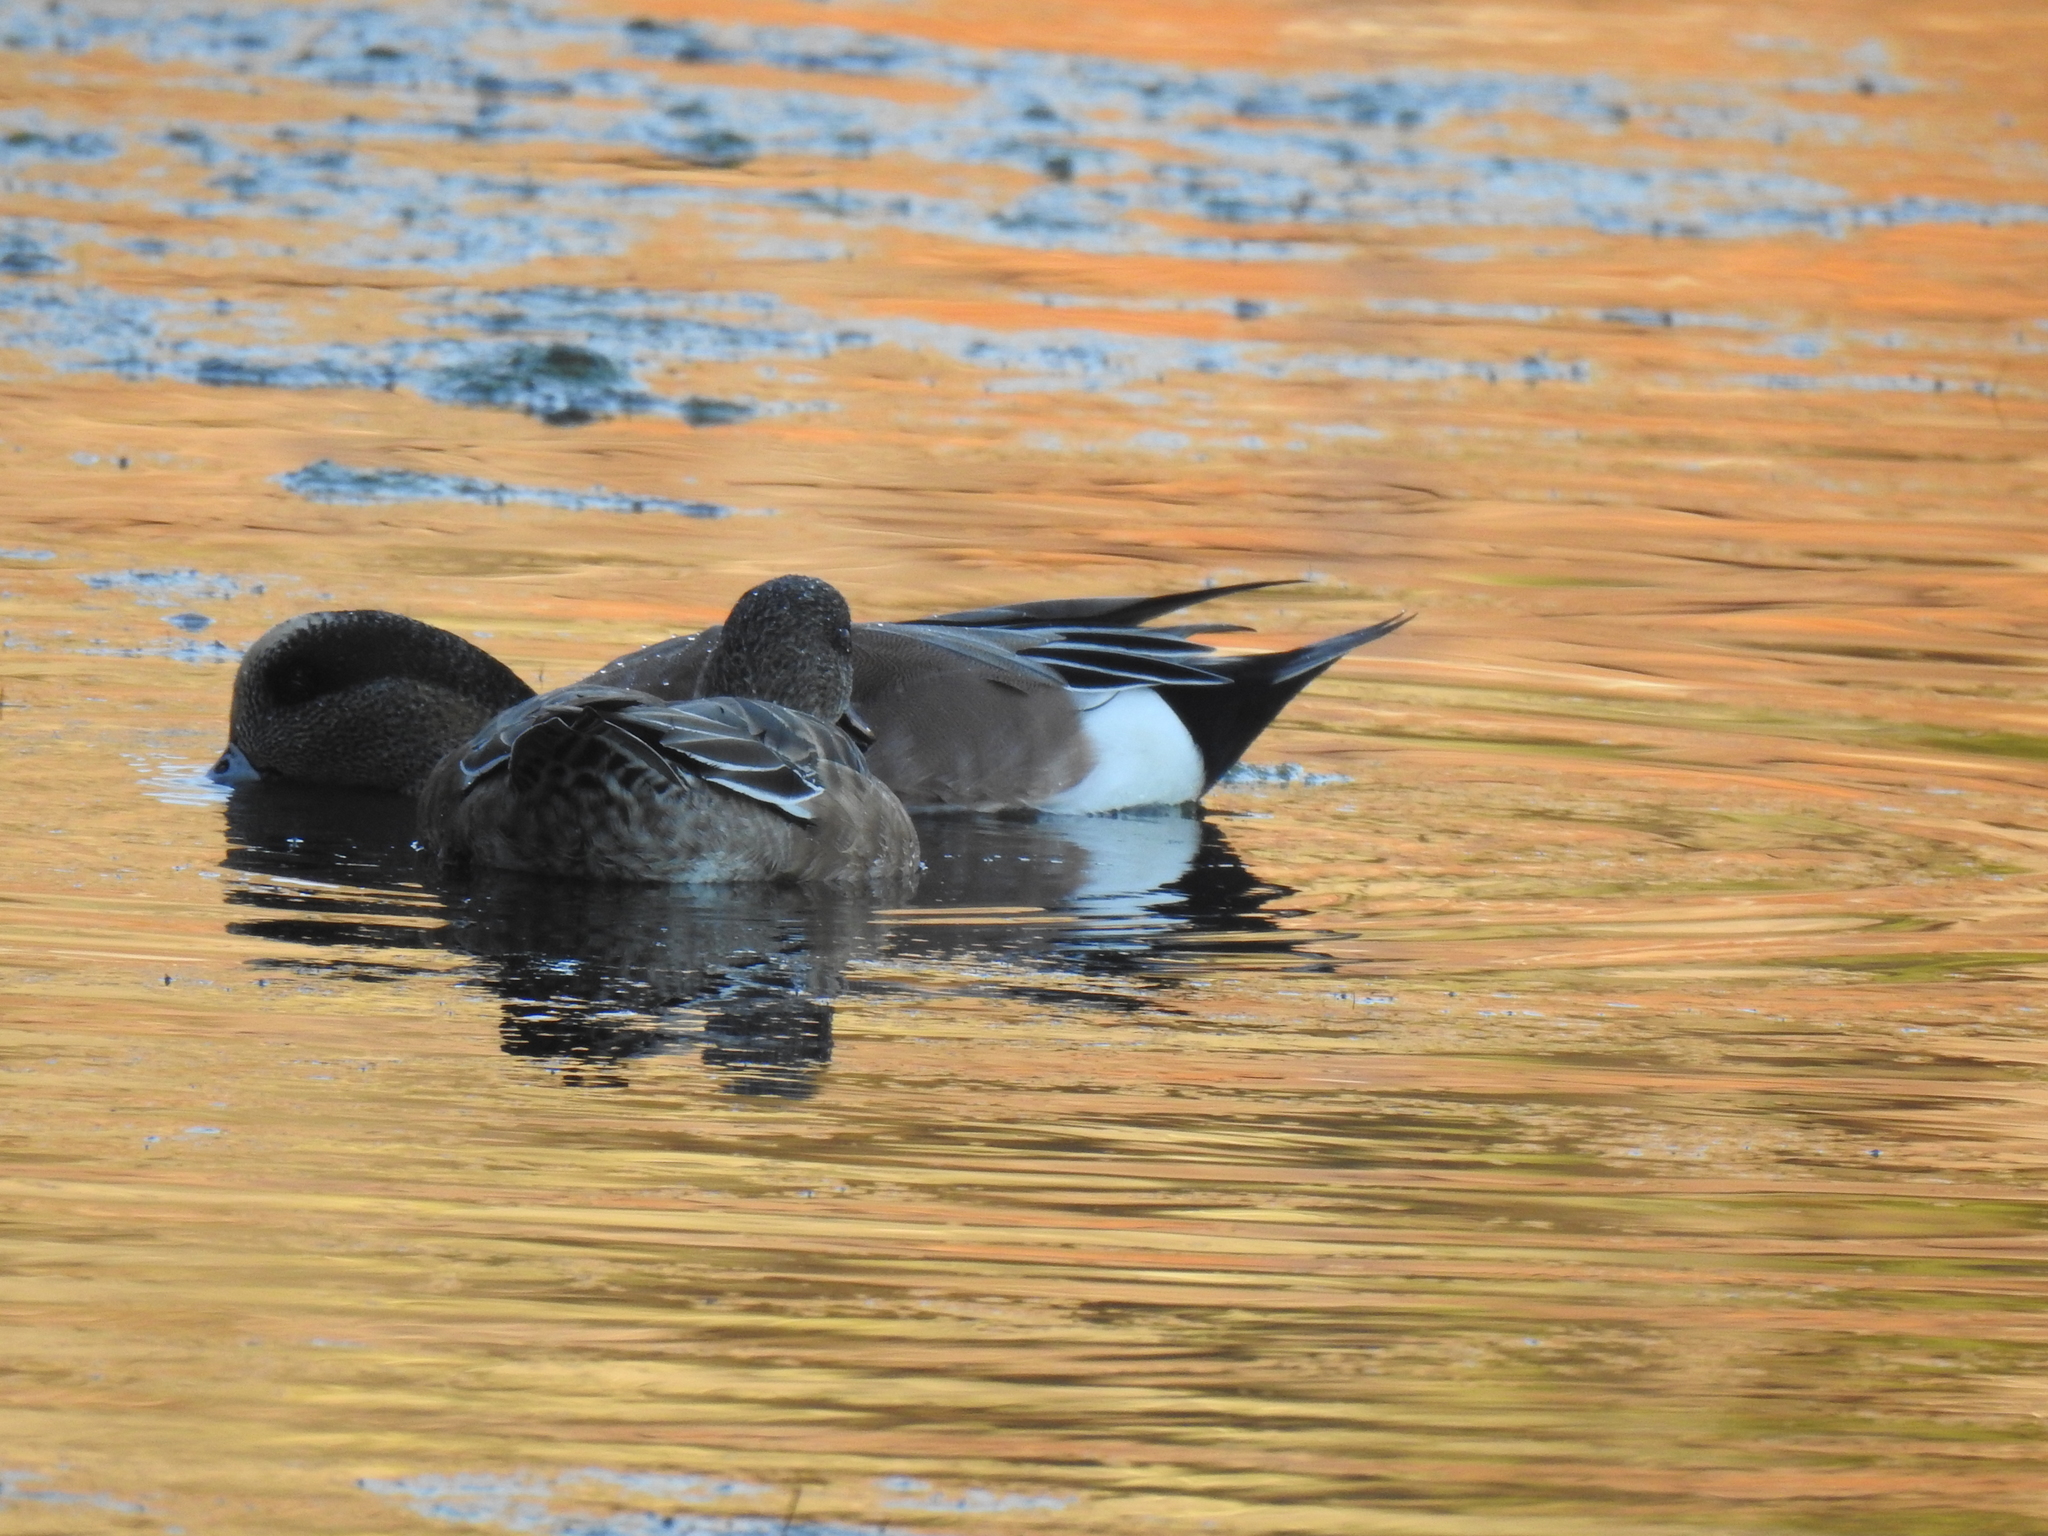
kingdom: Animalia
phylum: Chordata
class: Aves
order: Anseriformes
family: Anatidae
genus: Mareca
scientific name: Mareca americana
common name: American wigeon
